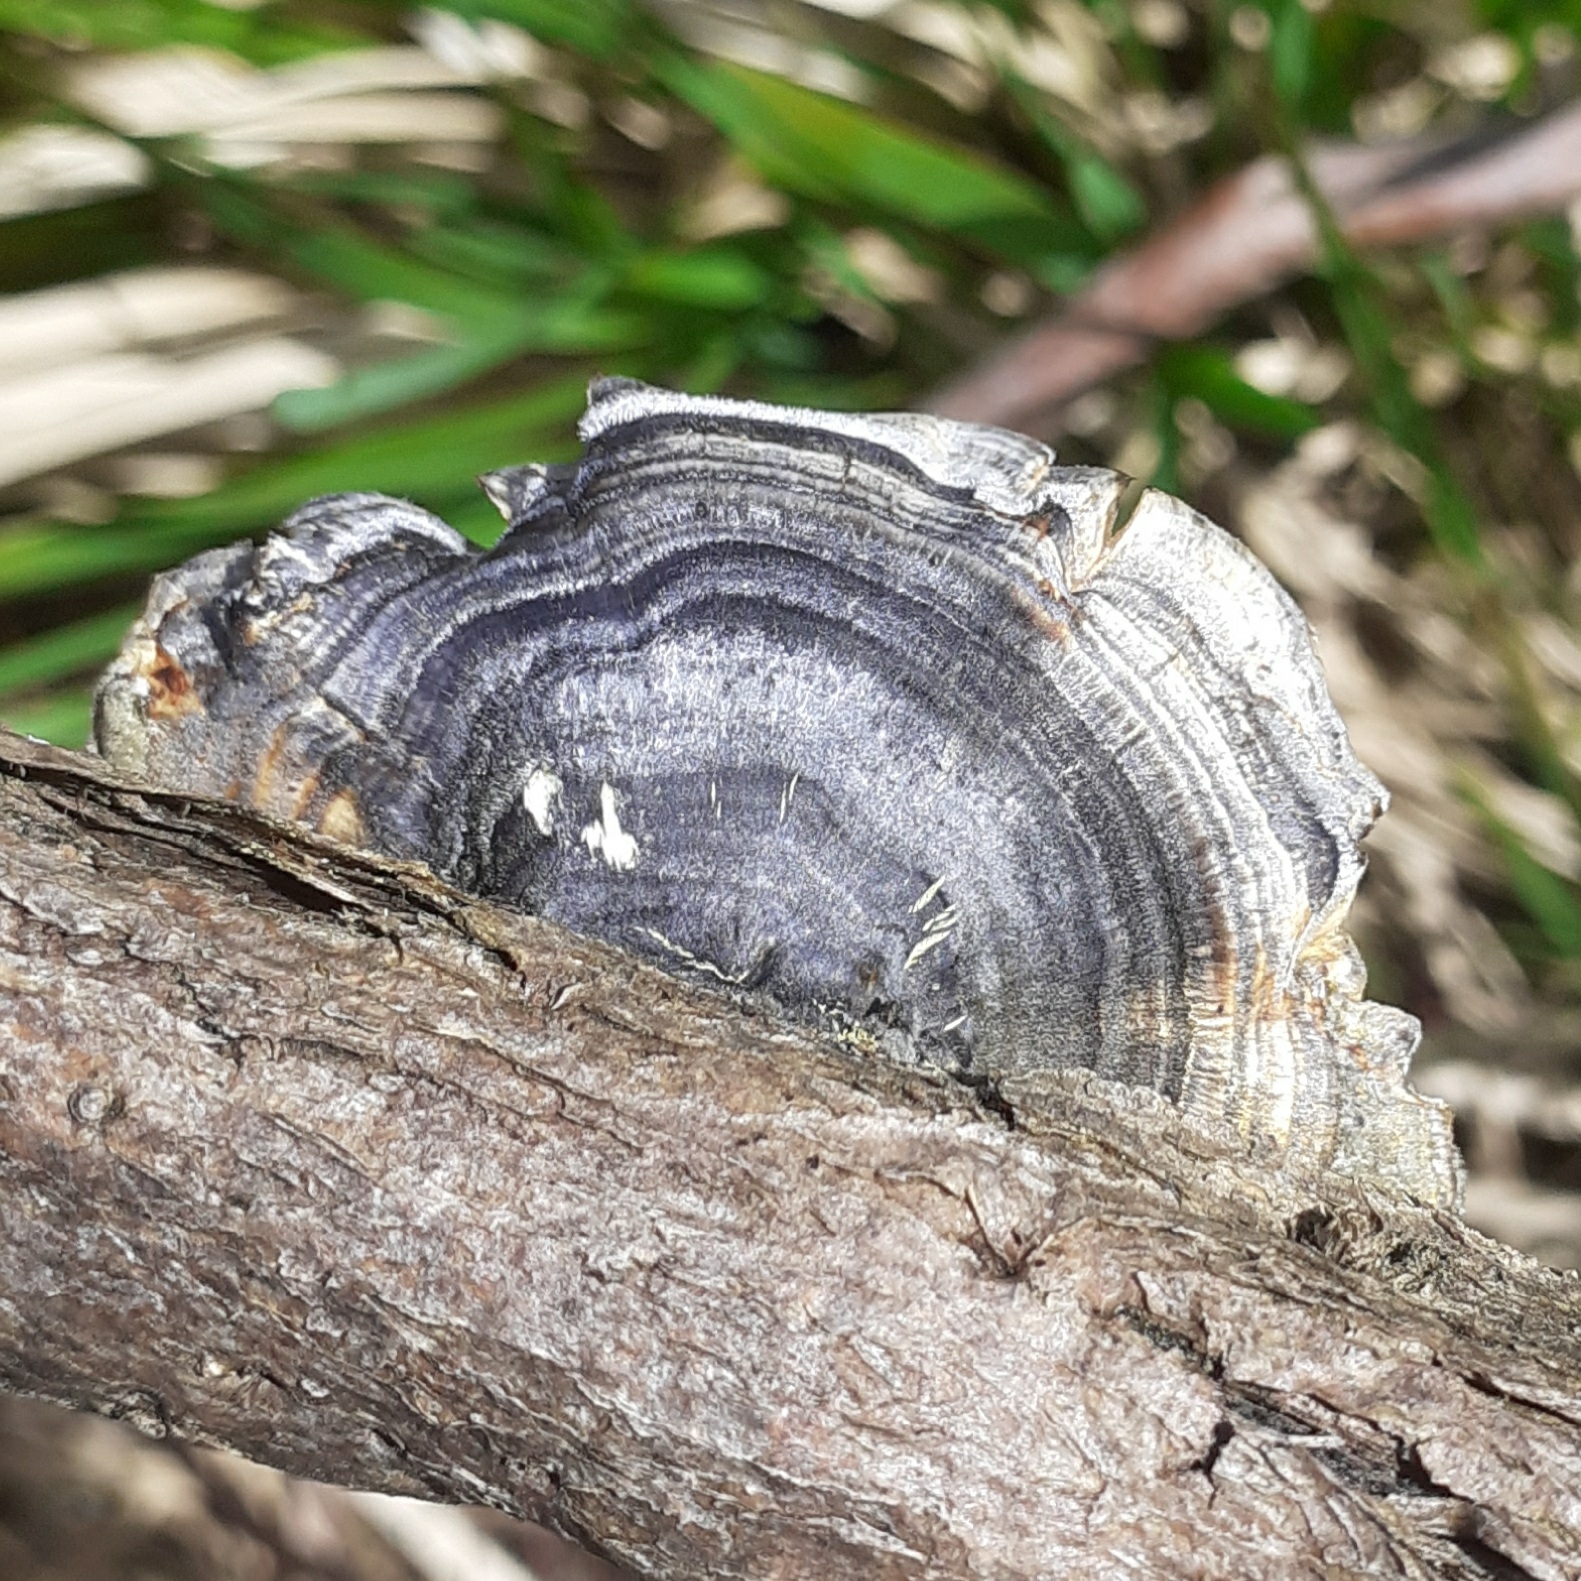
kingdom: Fungi
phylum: Basidiomycota
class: Agaricomycetes
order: Polyporales
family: Polyporaceae
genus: Trametes
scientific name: Trametes versicolor
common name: Turkeytail
